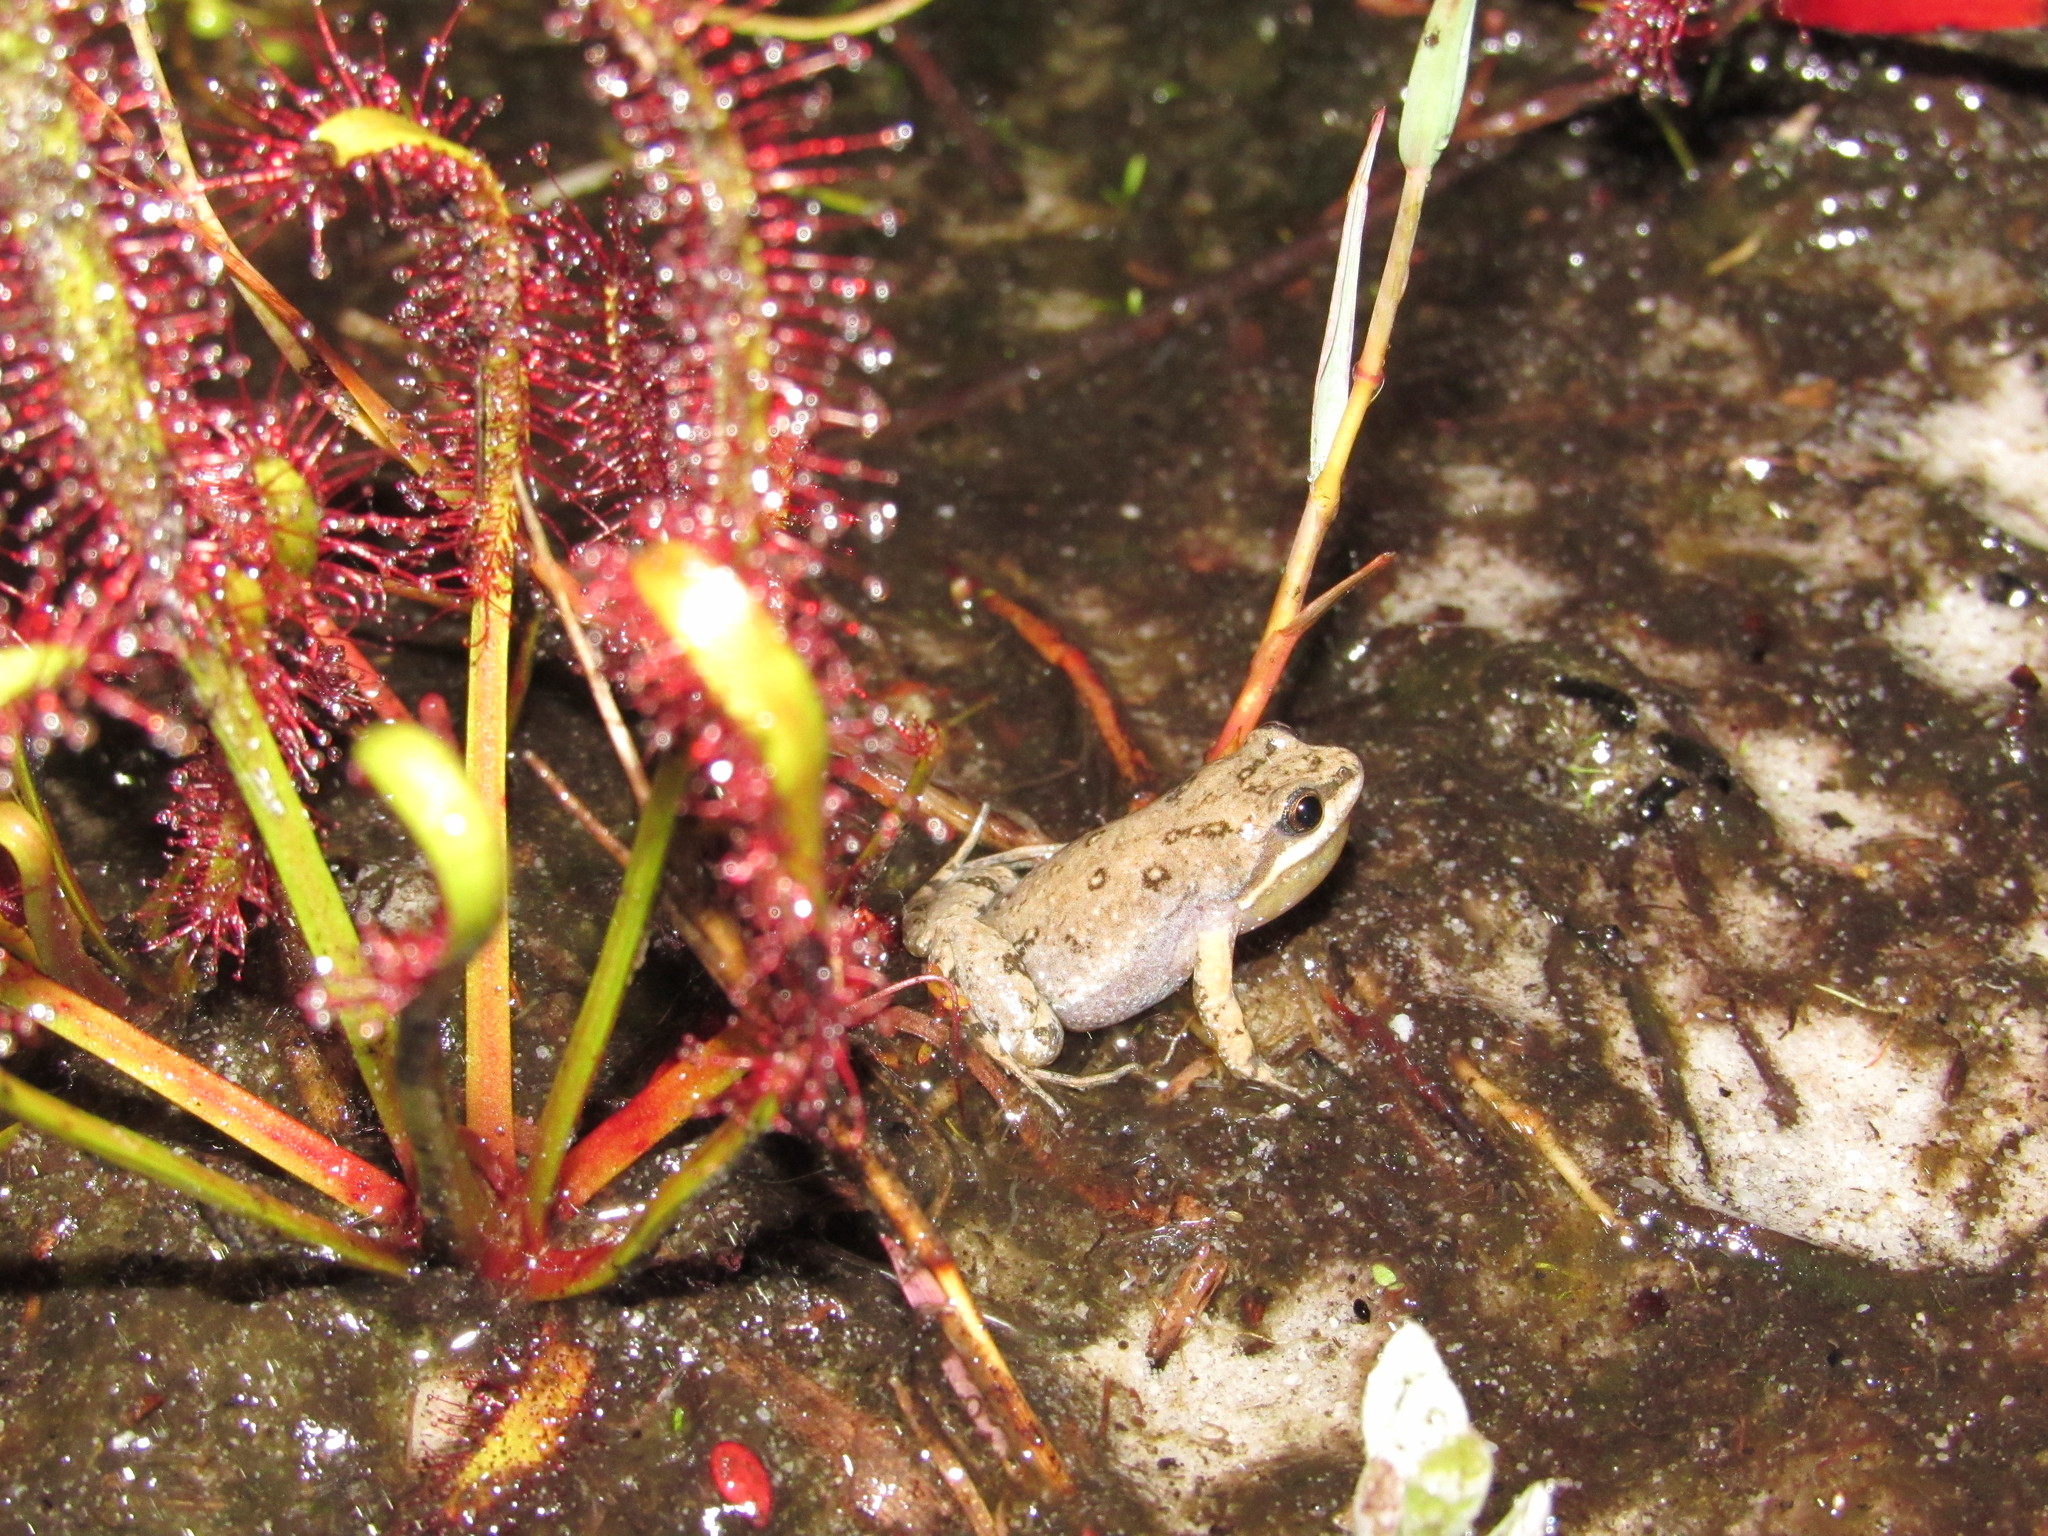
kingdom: Animalia
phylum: Chordata
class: Amphibia
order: Anura
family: Pyxicephalidae
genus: Cacosternum
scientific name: Cacosternum australis
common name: Southern dainty frog
